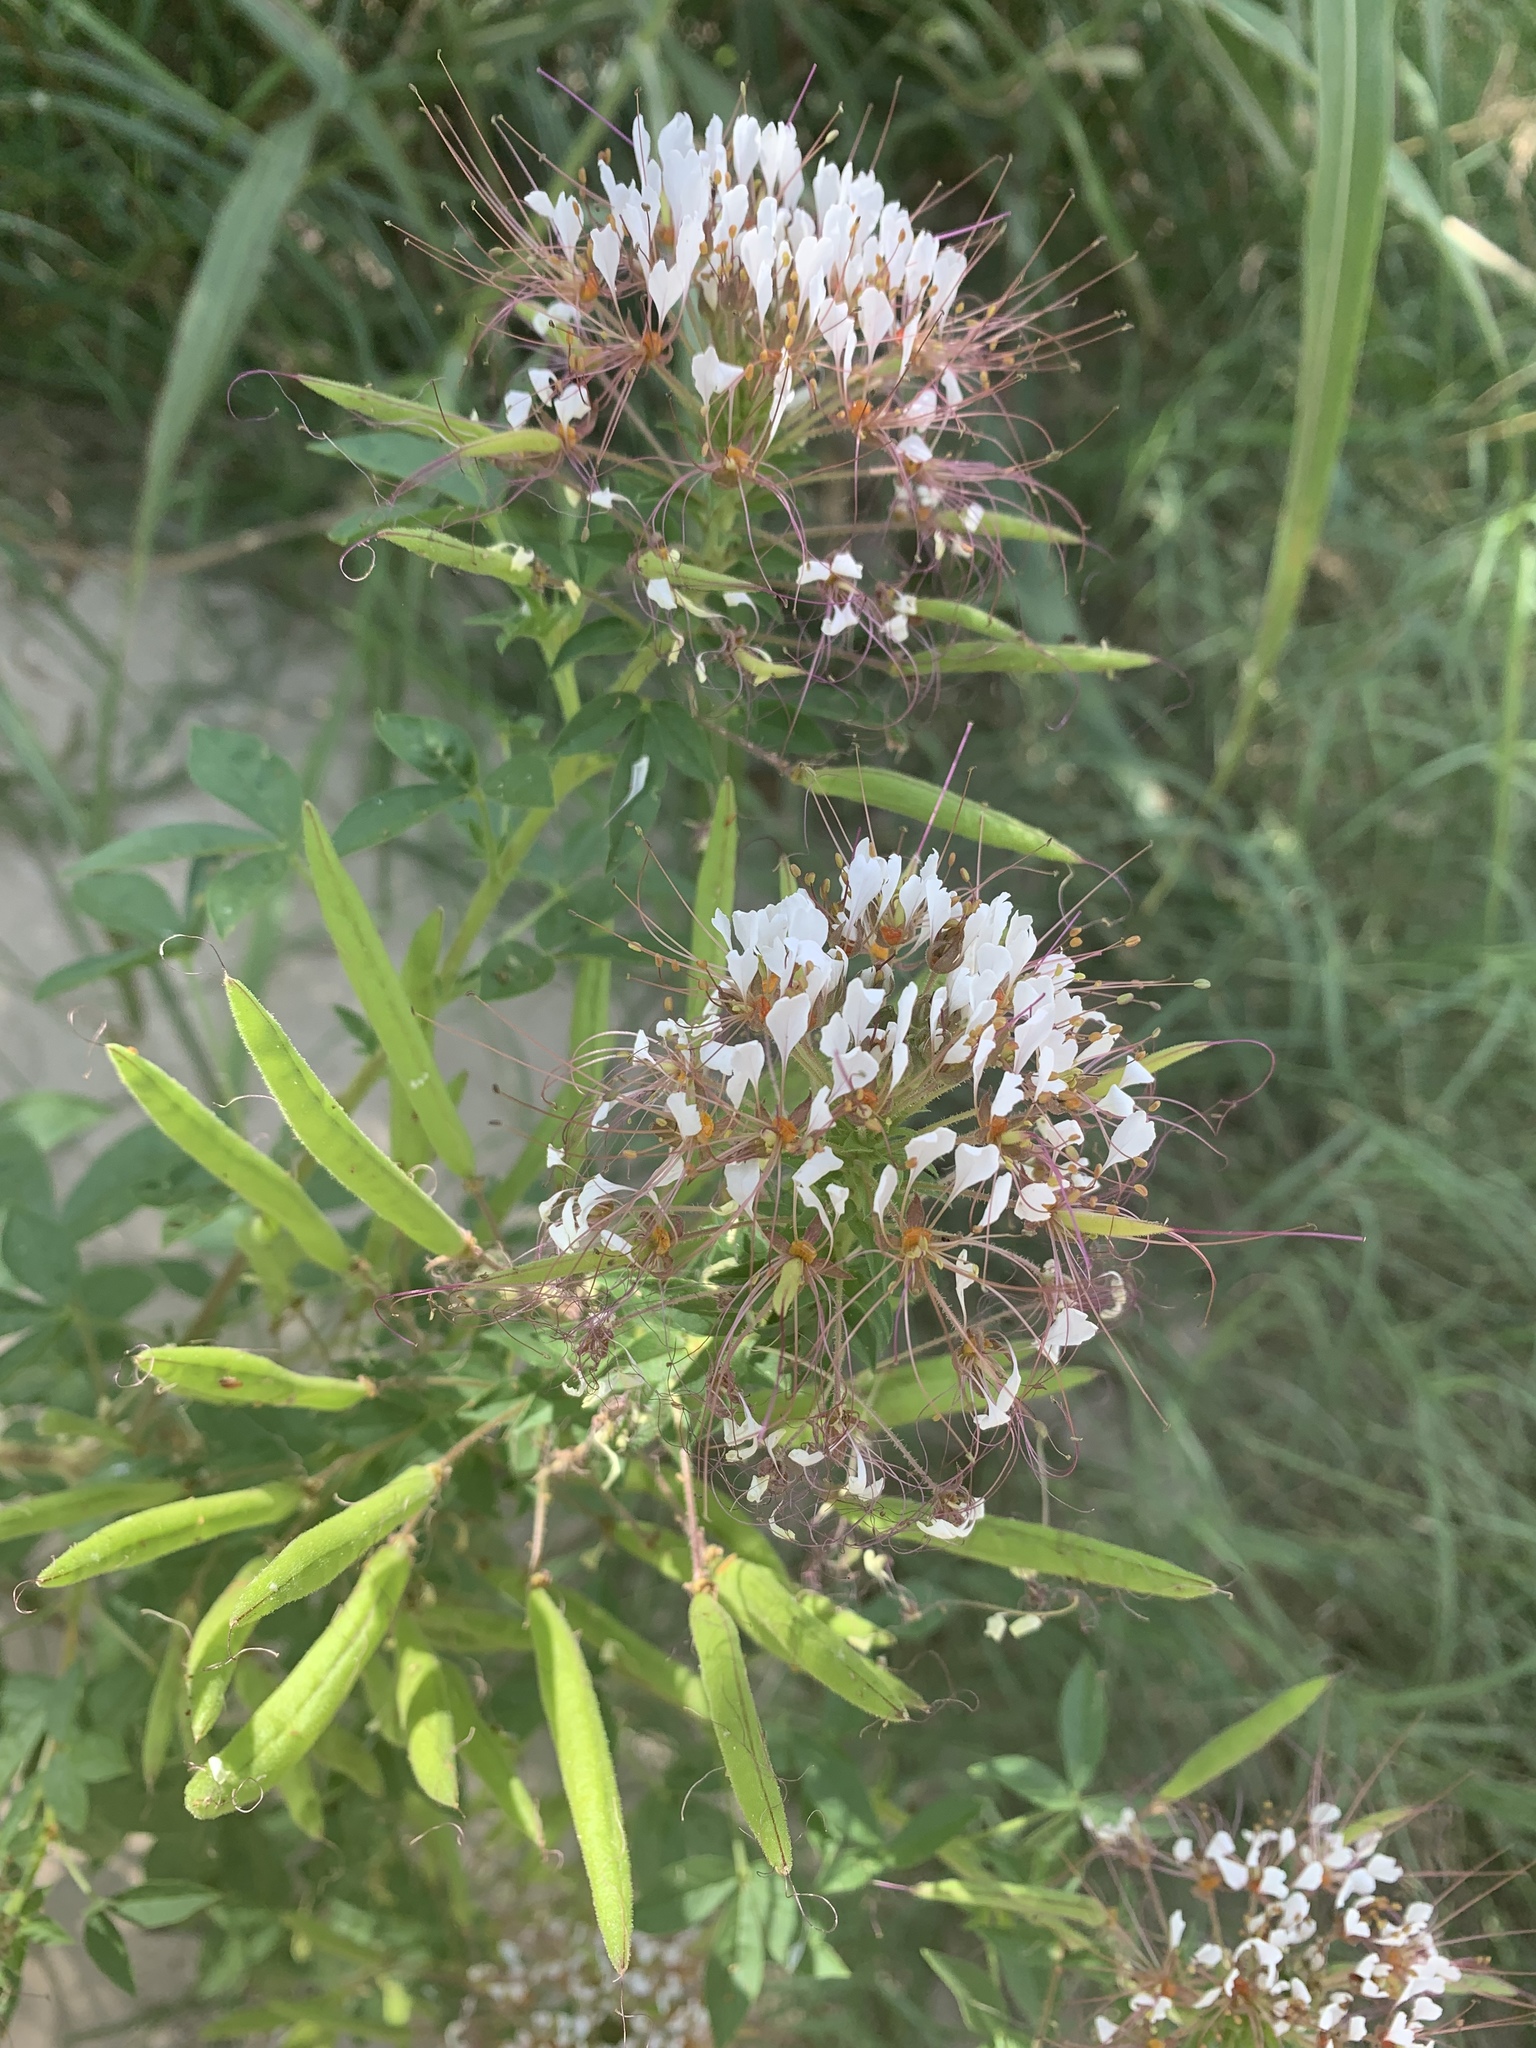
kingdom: Plantae
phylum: Tracheophyta
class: Magnoliopsida
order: Brassicales
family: Cleomaceae
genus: Polanisia
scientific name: Polanisia dodecandra
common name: Clammyweed
